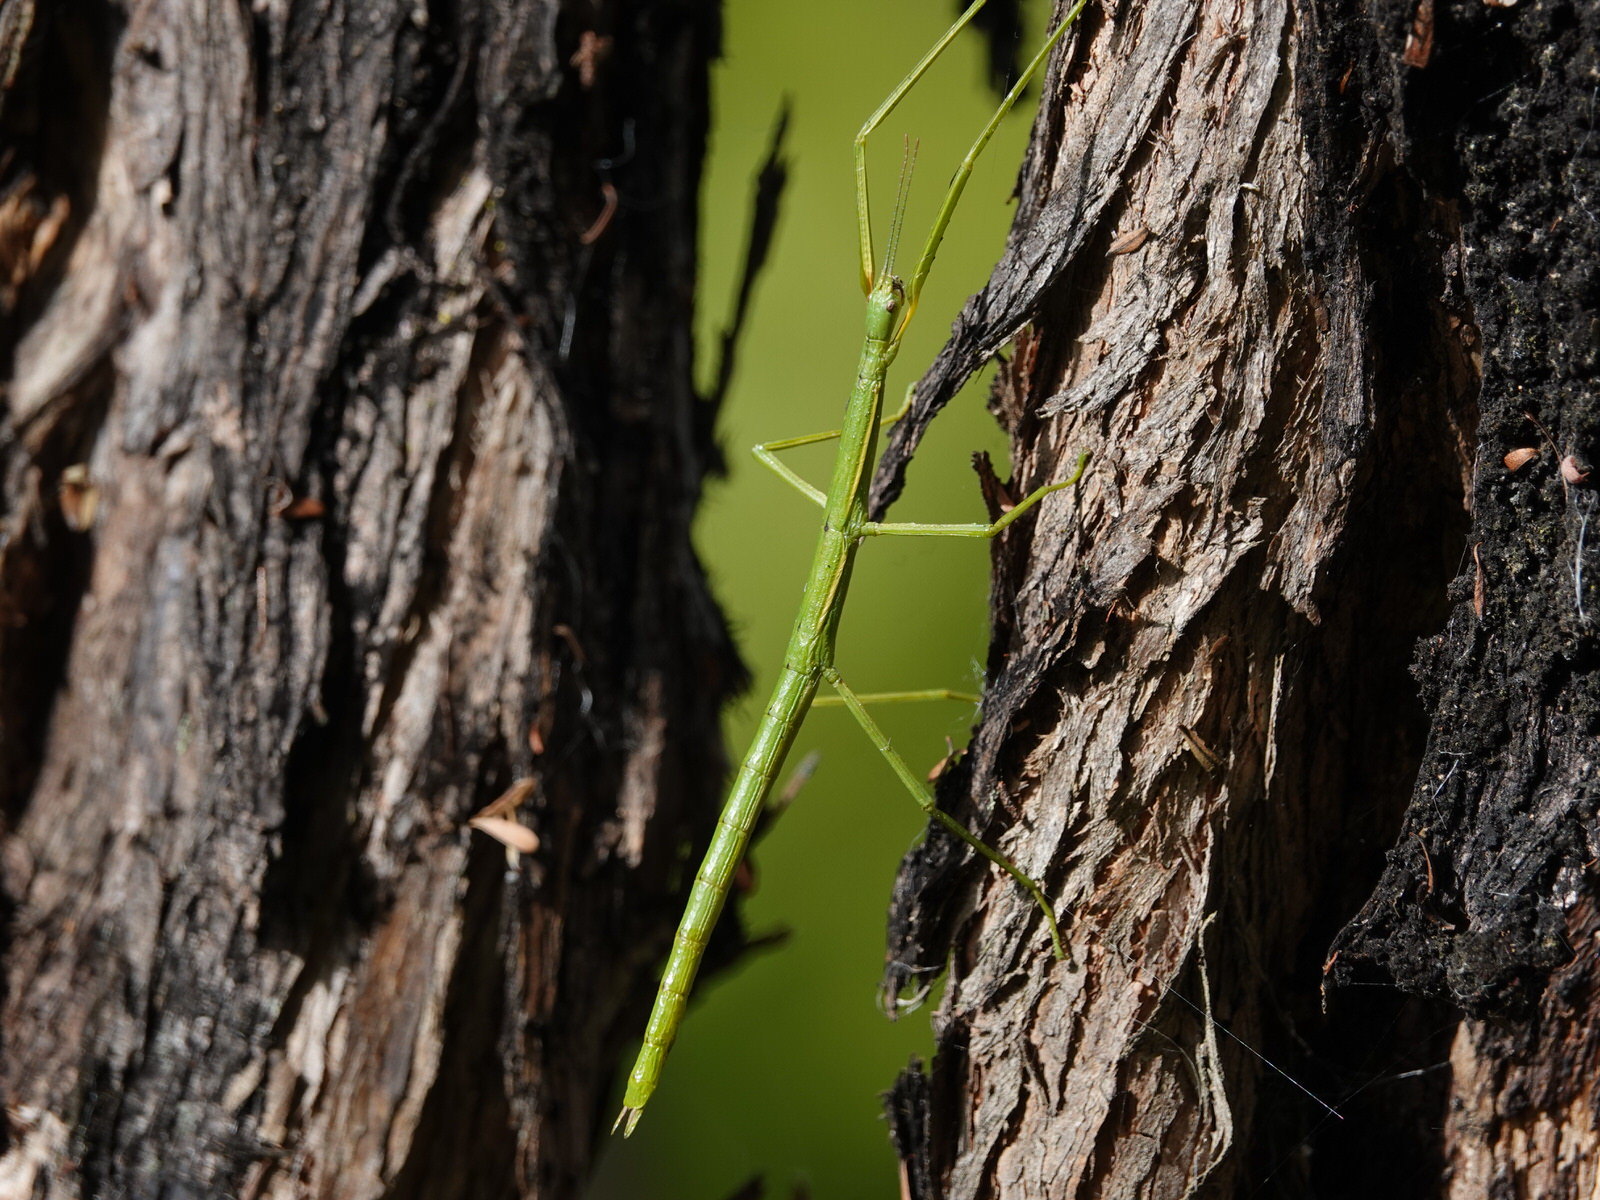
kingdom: Animalia
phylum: Arthropoda
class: Insecta
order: Phasmida
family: Phasmatidae
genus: Clitarchus
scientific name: Clitarchus hookeri
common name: Smooth stick insect
